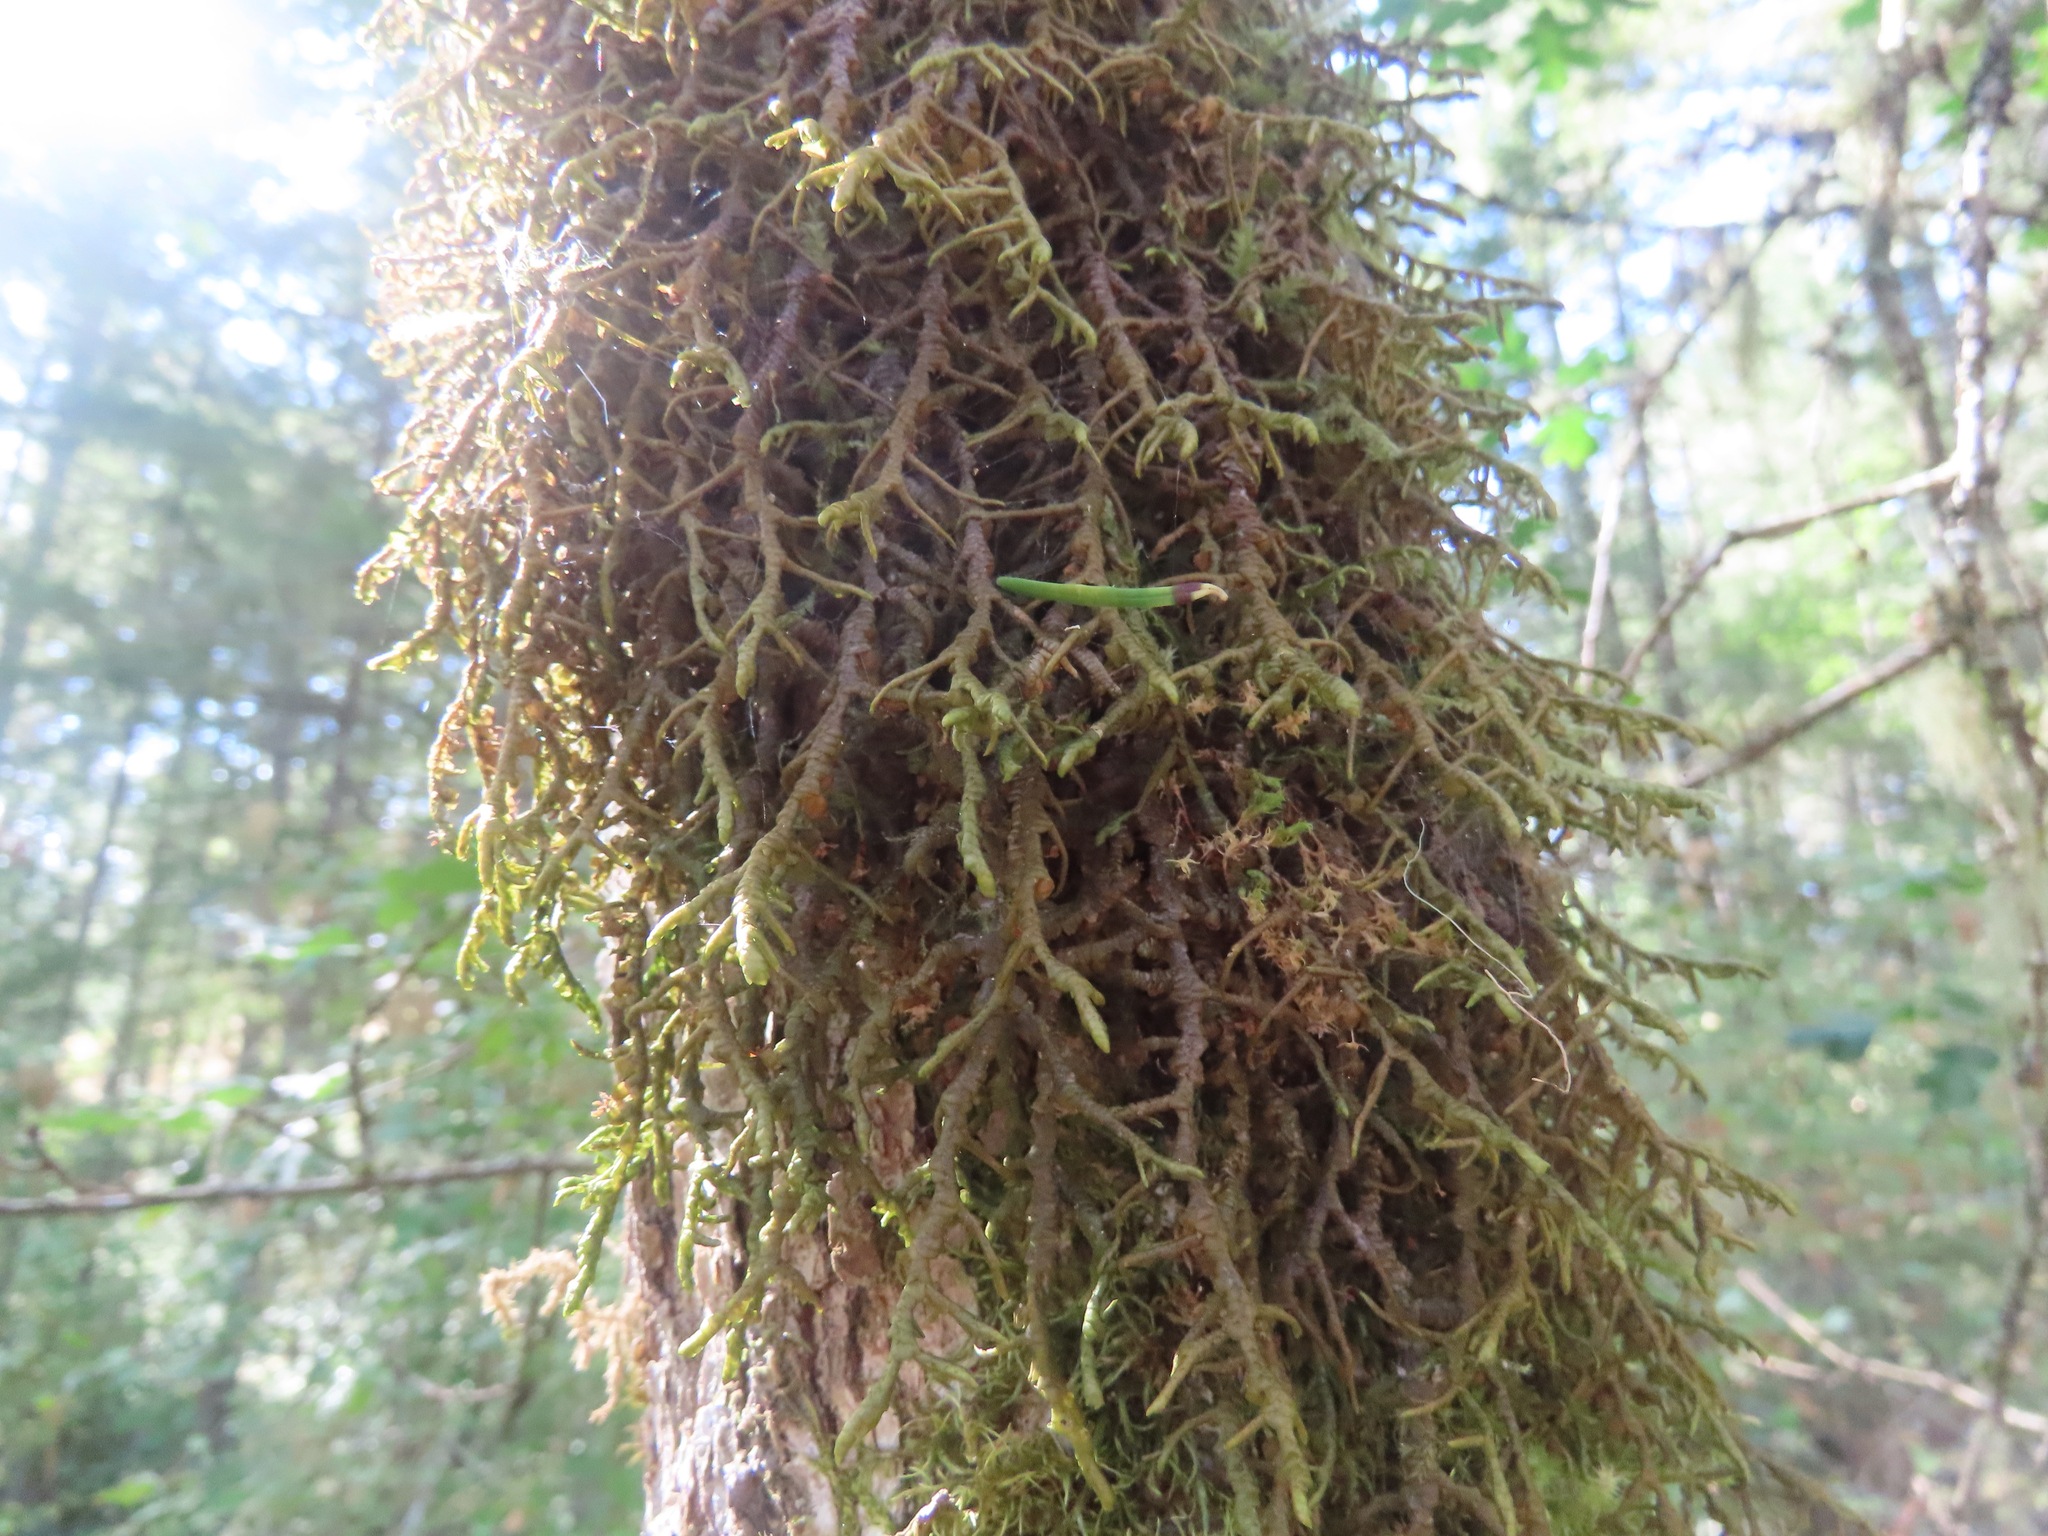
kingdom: Plantae
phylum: Marchantiophyta
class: Jungermanniopsida
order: Porellales
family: Porellaceae
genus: Porella
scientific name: Porella navicularis
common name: Tree ruffle liverwort
